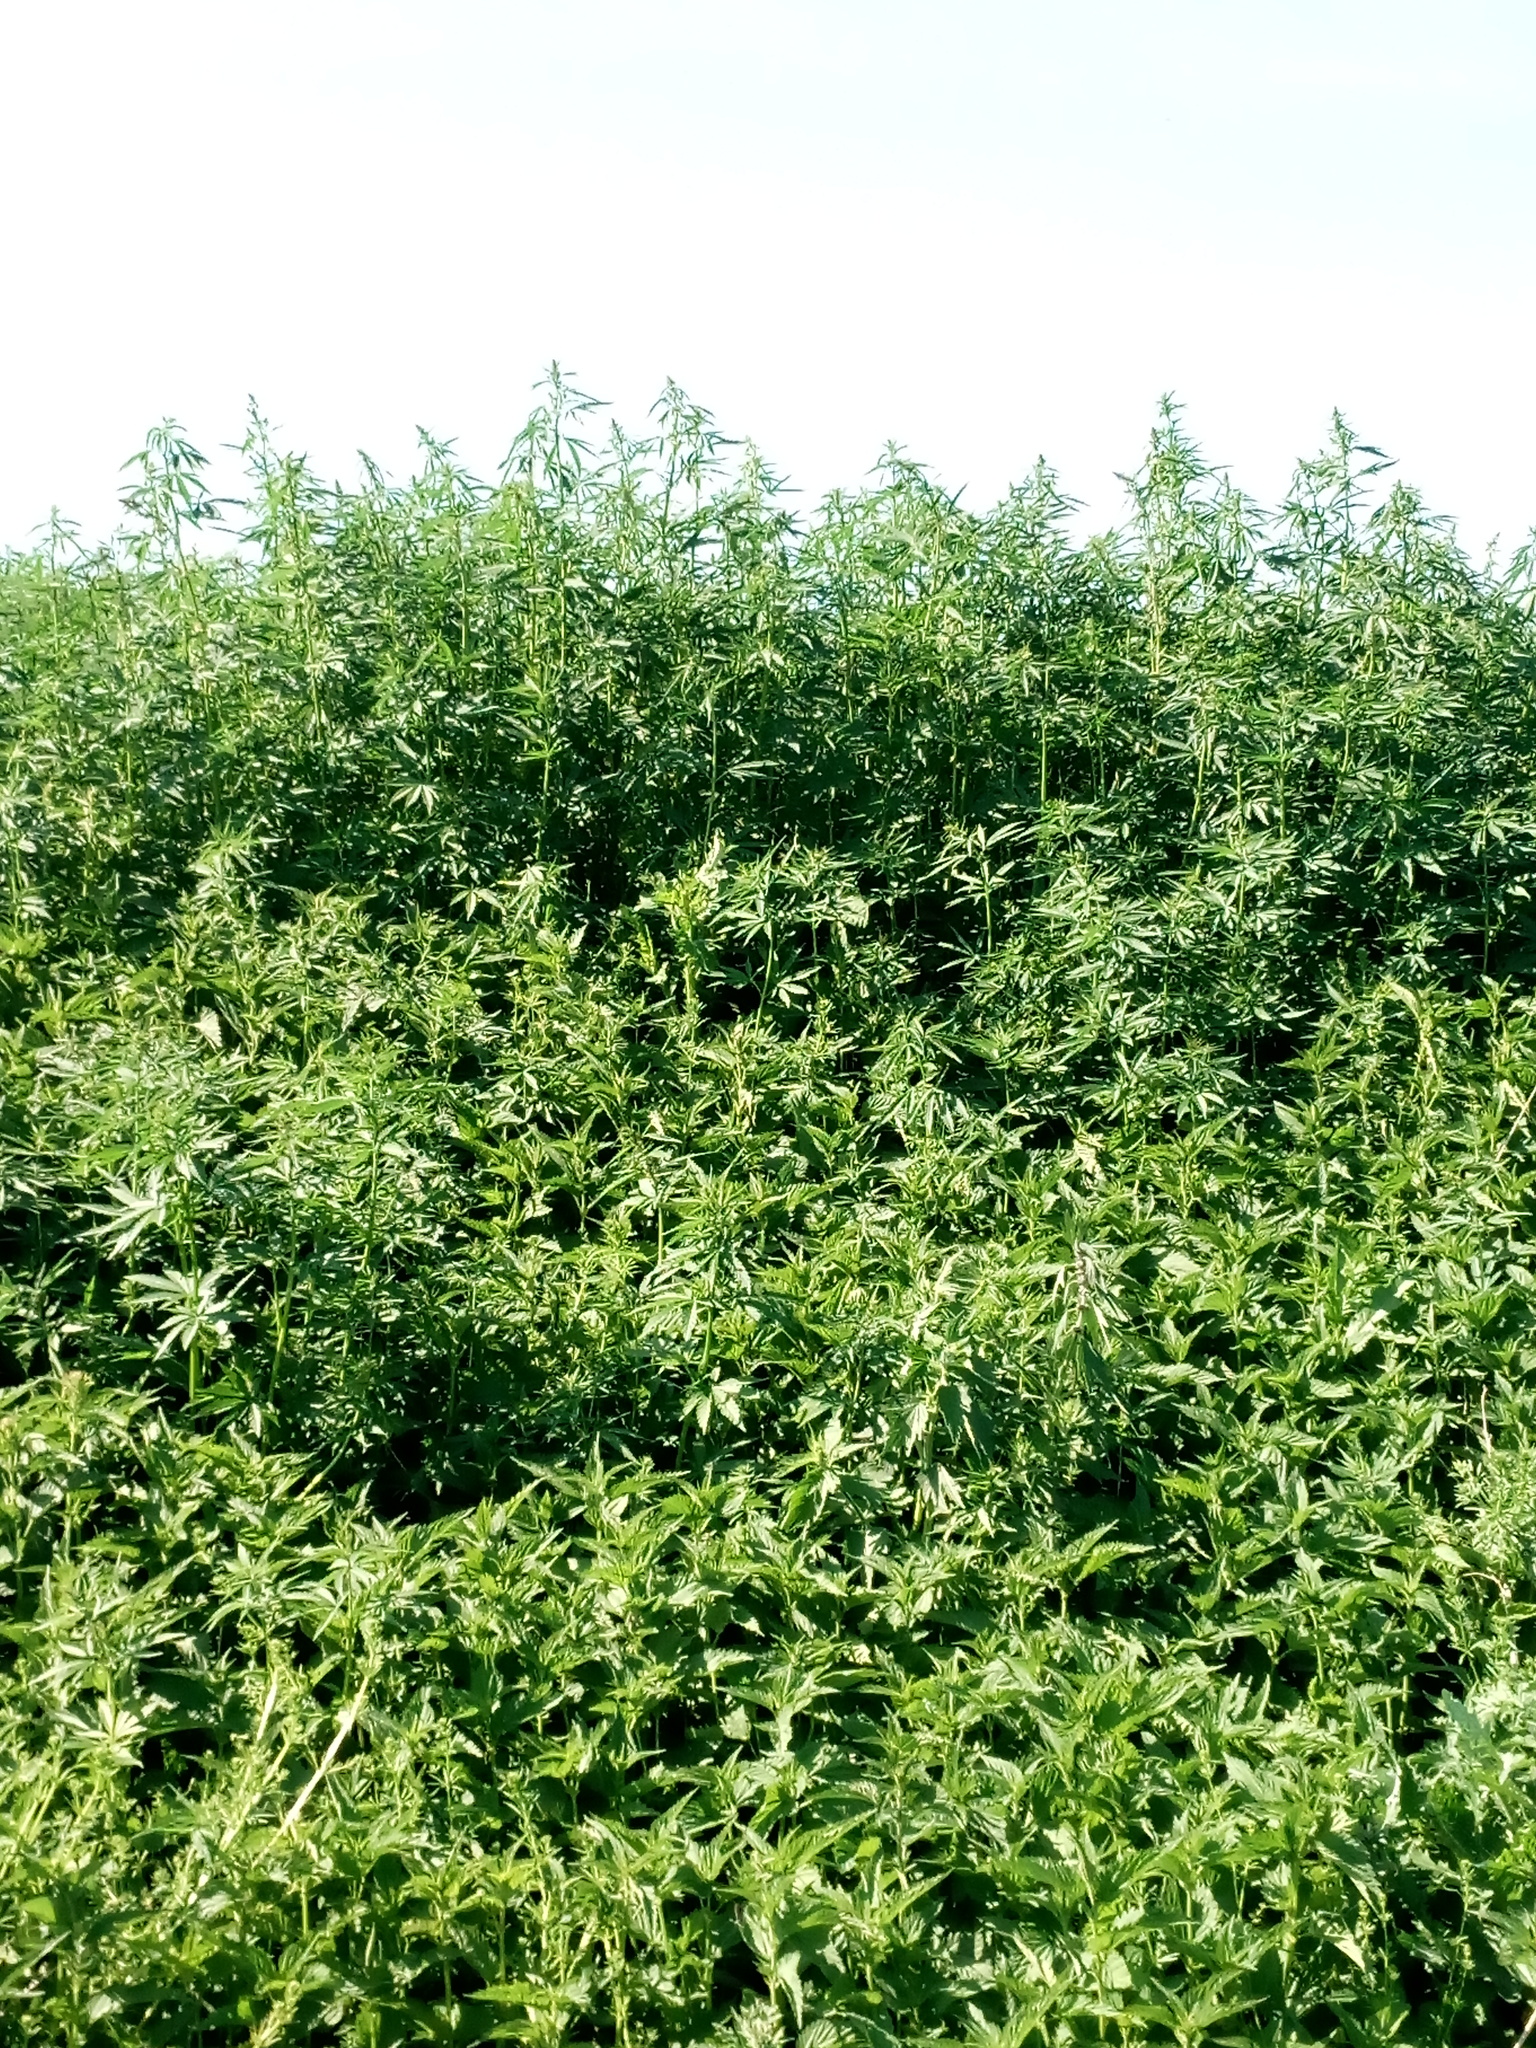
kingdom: Plantae
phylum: Tracheophyta
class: Magnoliopsida
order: Rosales
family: Cannabaceae
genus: Cannabis
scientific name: Cannabis sativa
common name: Hemp
